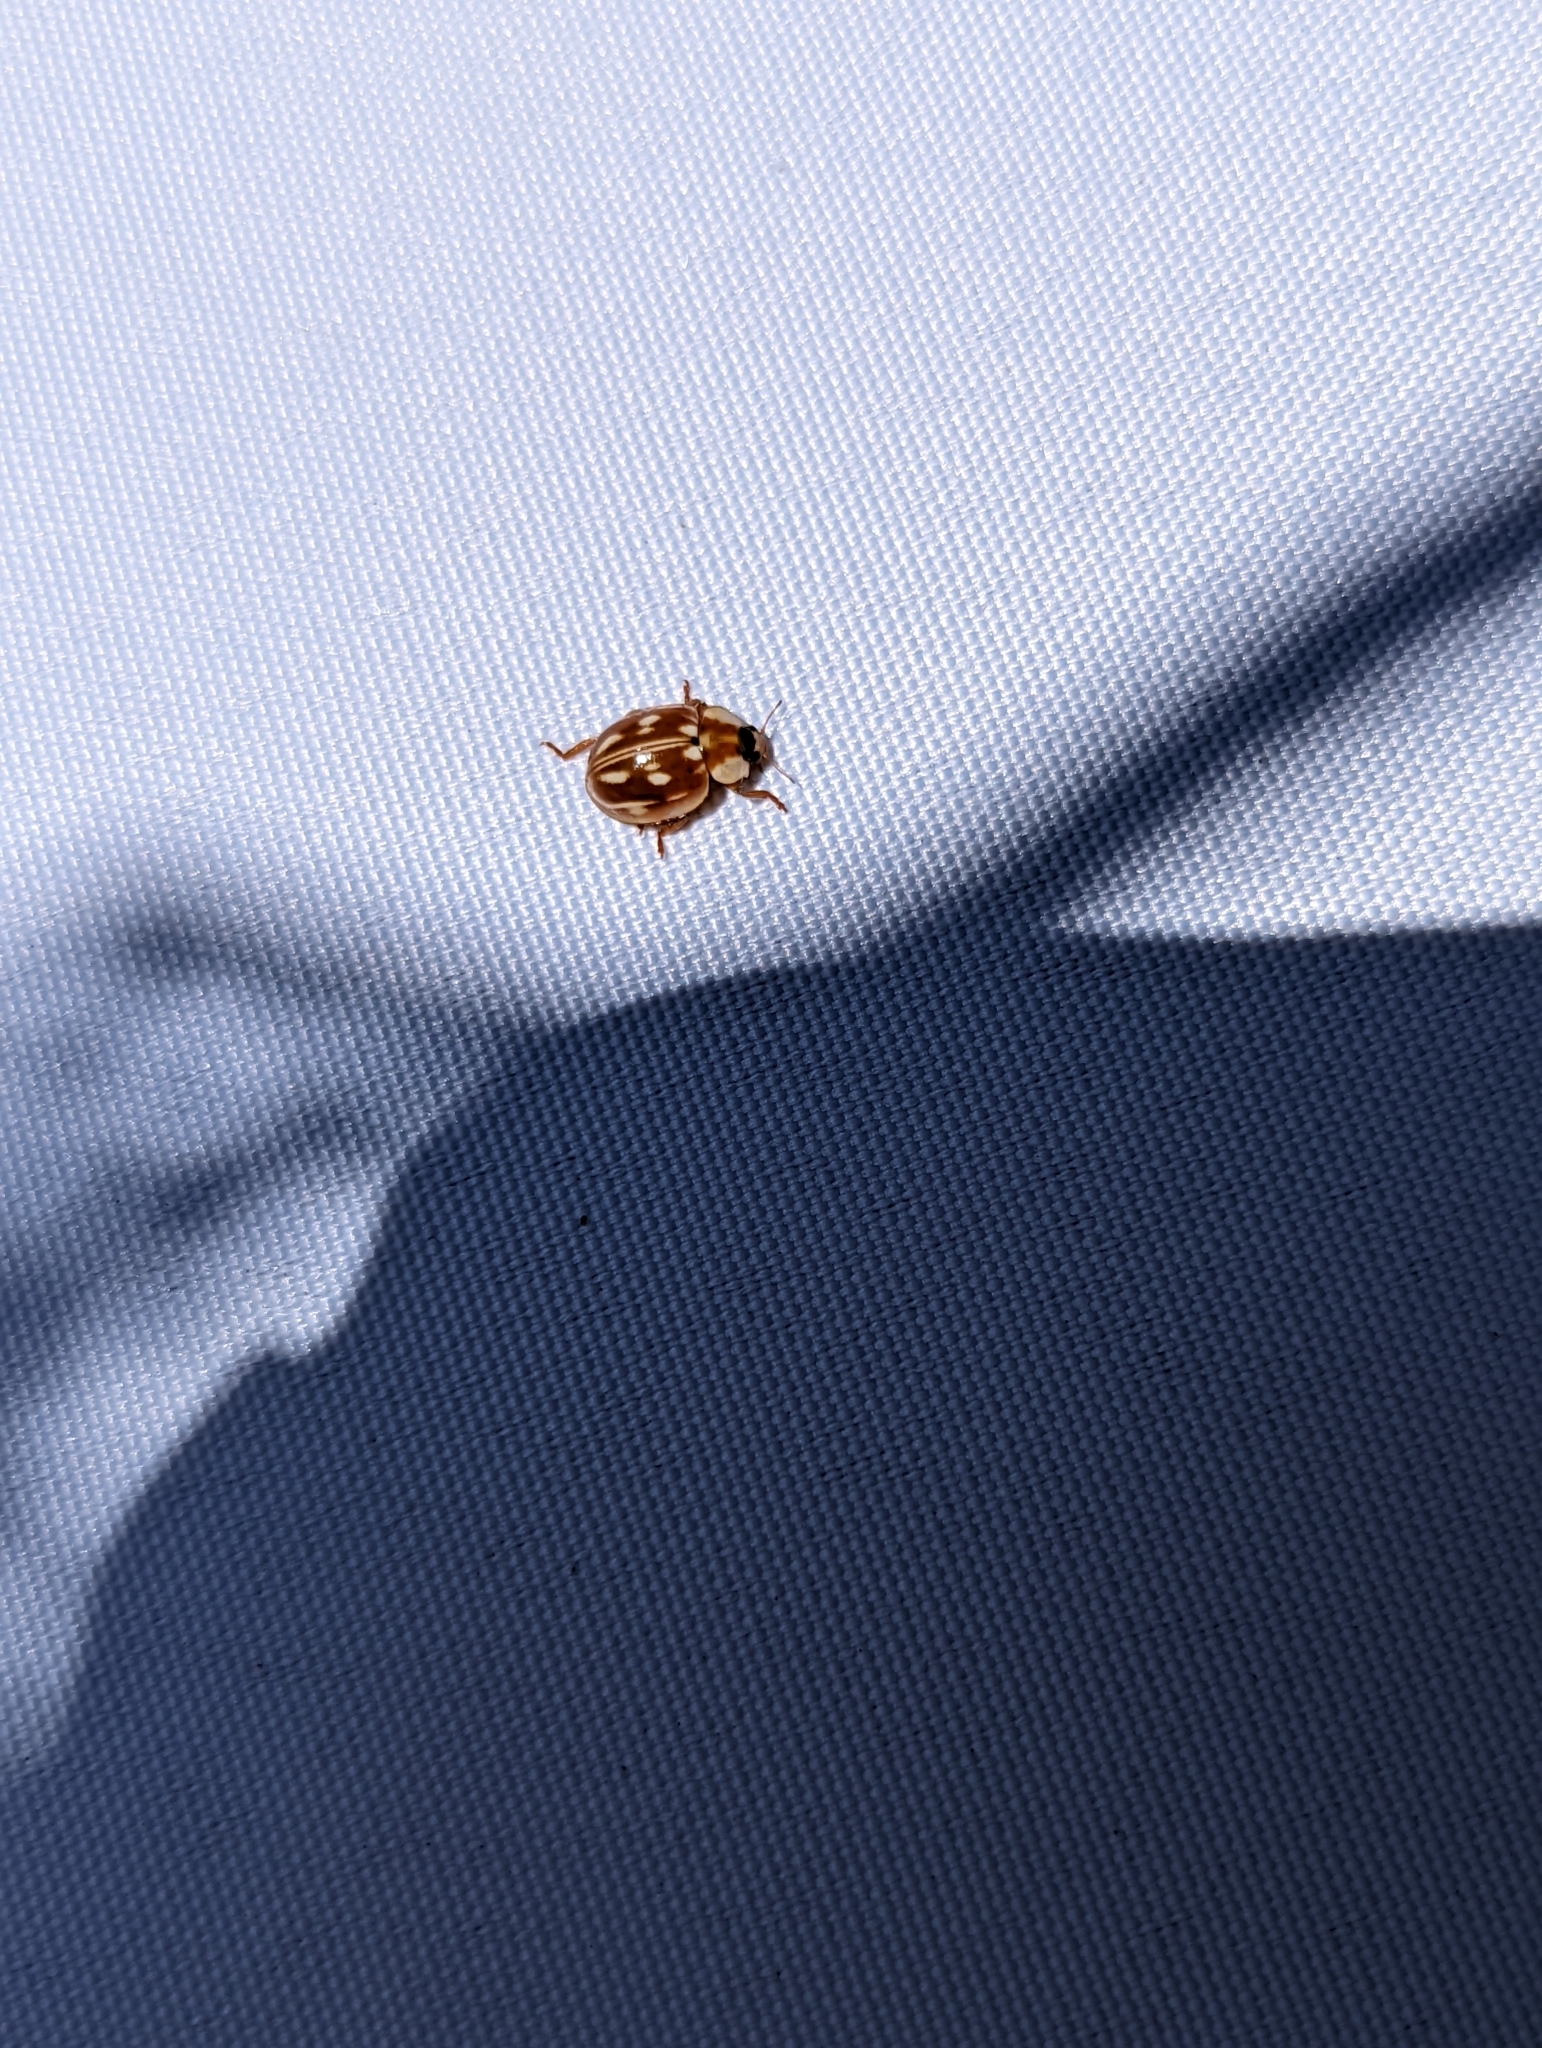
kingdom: Animalia
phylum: Arthropoda
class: Insecta
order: Coleoptera
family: Coccinellidae
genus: Myzia
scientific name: Myzia oblongoguttata
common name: Striped ladybird
